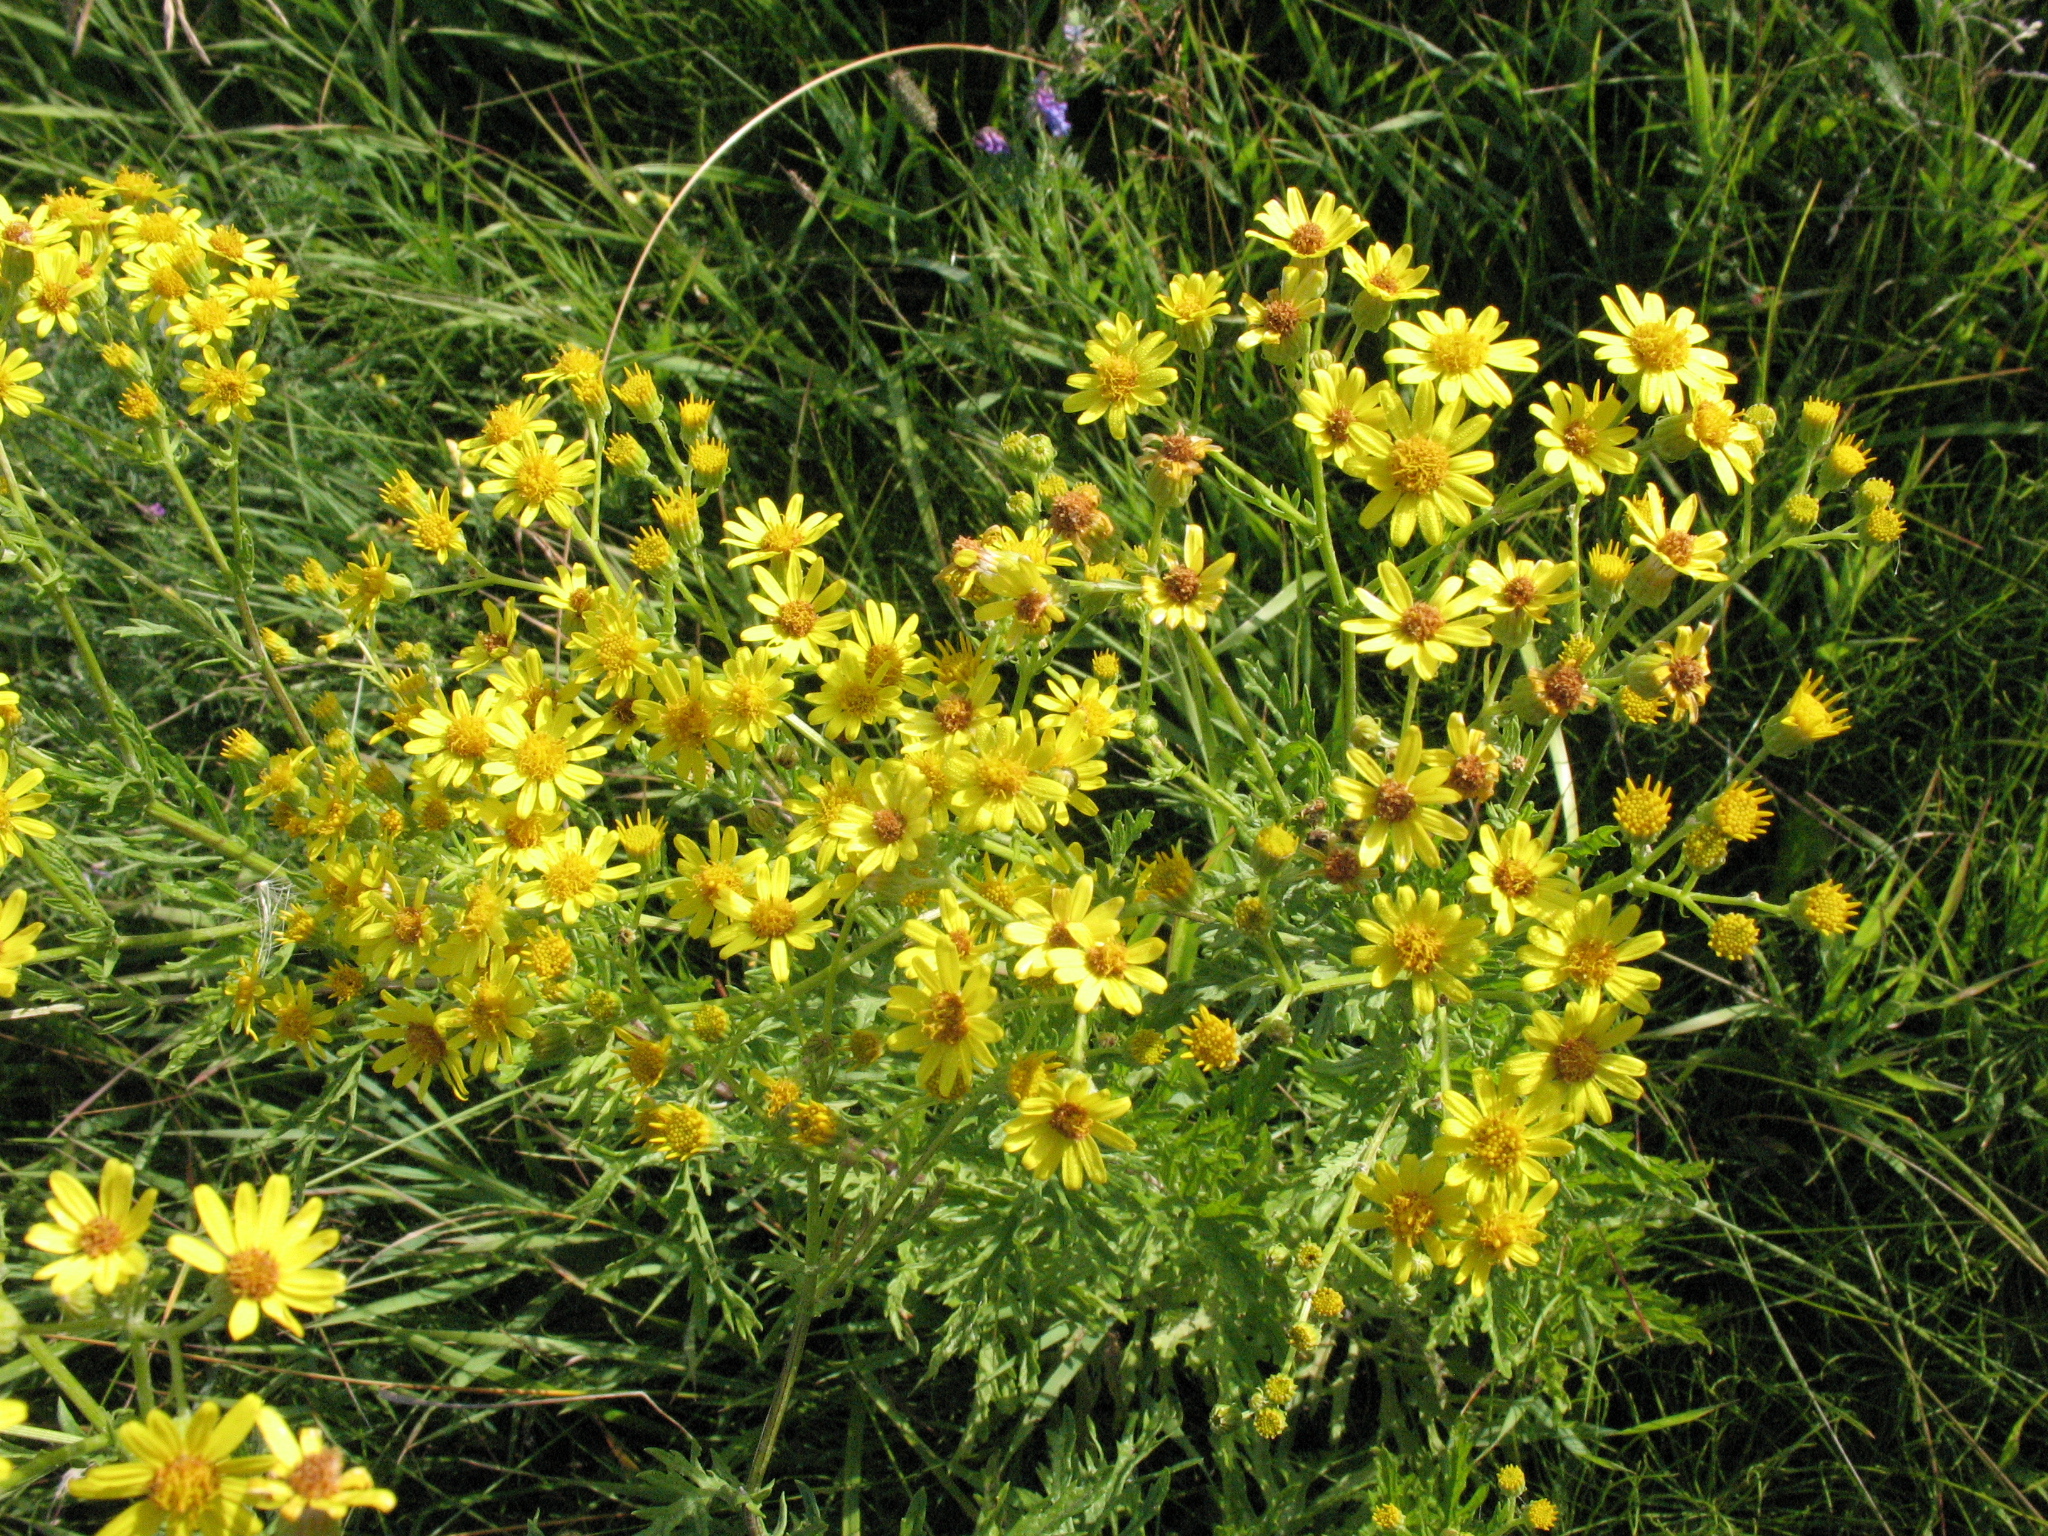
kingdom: Plantae
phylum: Tracheophyta
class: Magnoliopsida
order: Asterales
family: Asteraceae
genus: Jacobaea
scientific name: Jacobaea erucifolia
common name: Hoary ragwort
